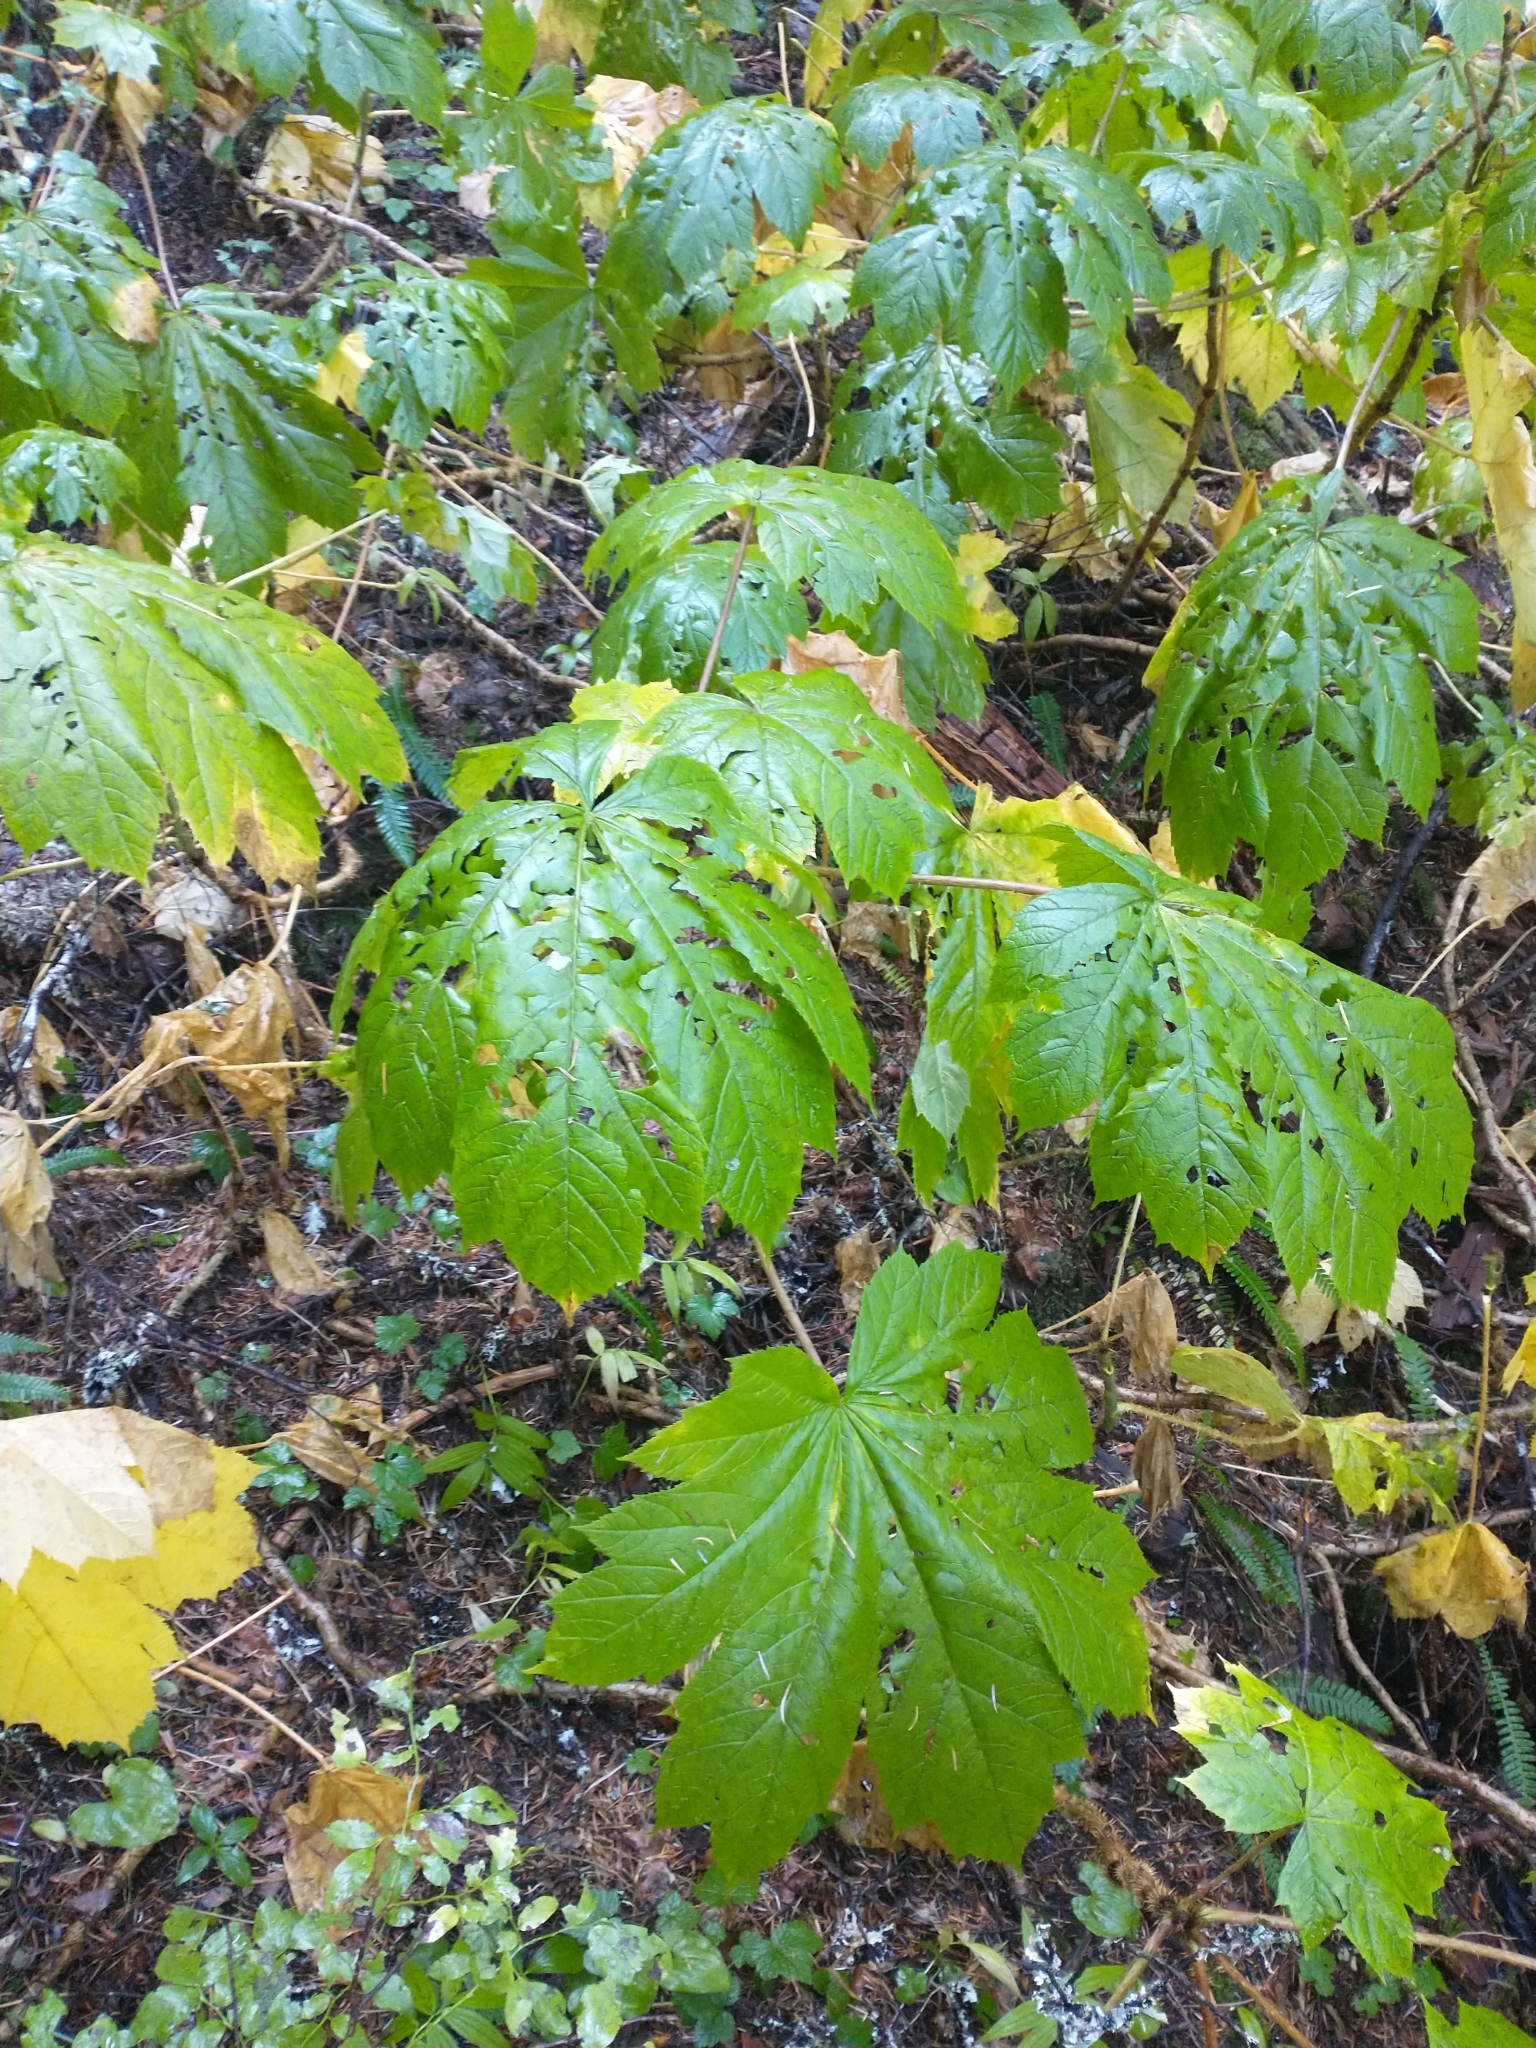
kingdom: Plantae
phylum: Tracheophyta
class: Magnoliopsida
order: Apiales
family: Araliaceae
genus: Oplopanax
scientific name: Oplopanax horridus
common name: Devil's walking-stick
